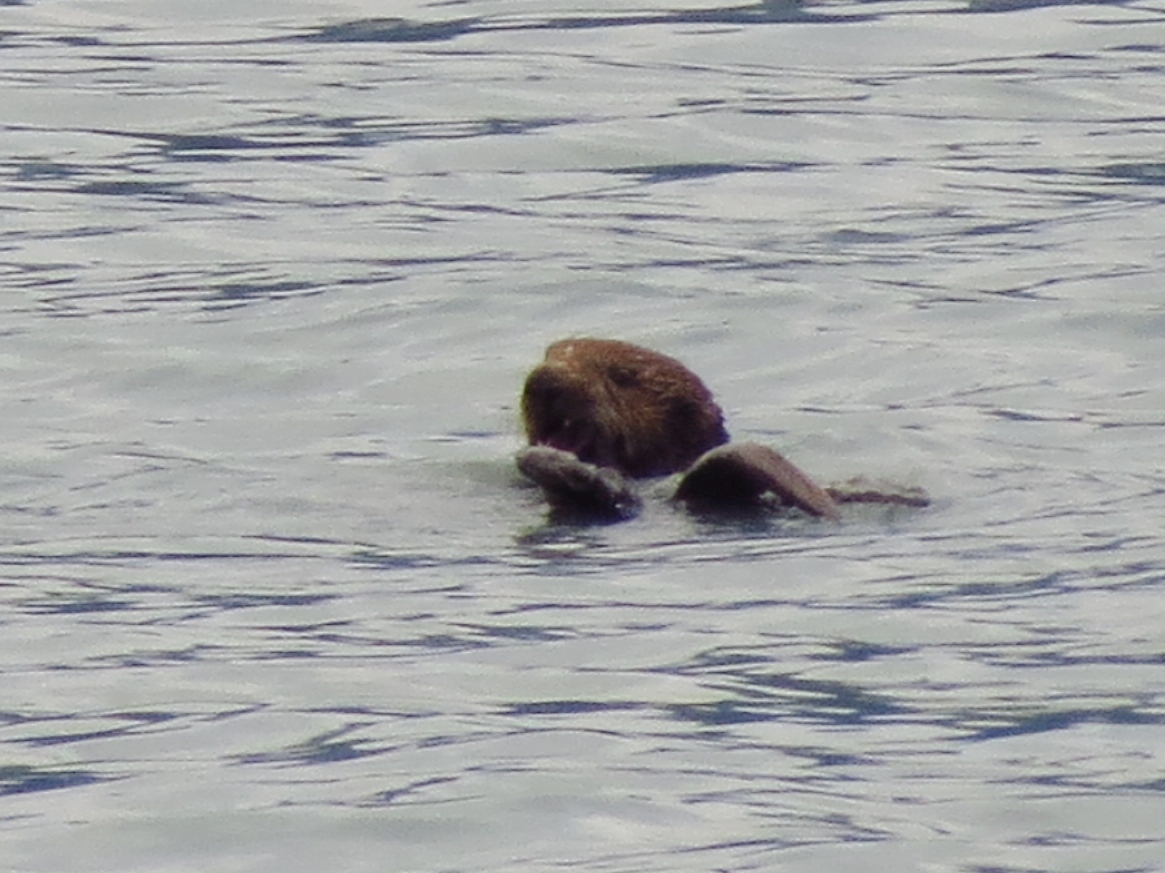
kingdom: Animalia
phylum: Chordata
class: Mammalia
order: Carnivora
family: Mustelidae
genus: Enhydra
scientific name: Enhydra lutris
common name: Sea otter
